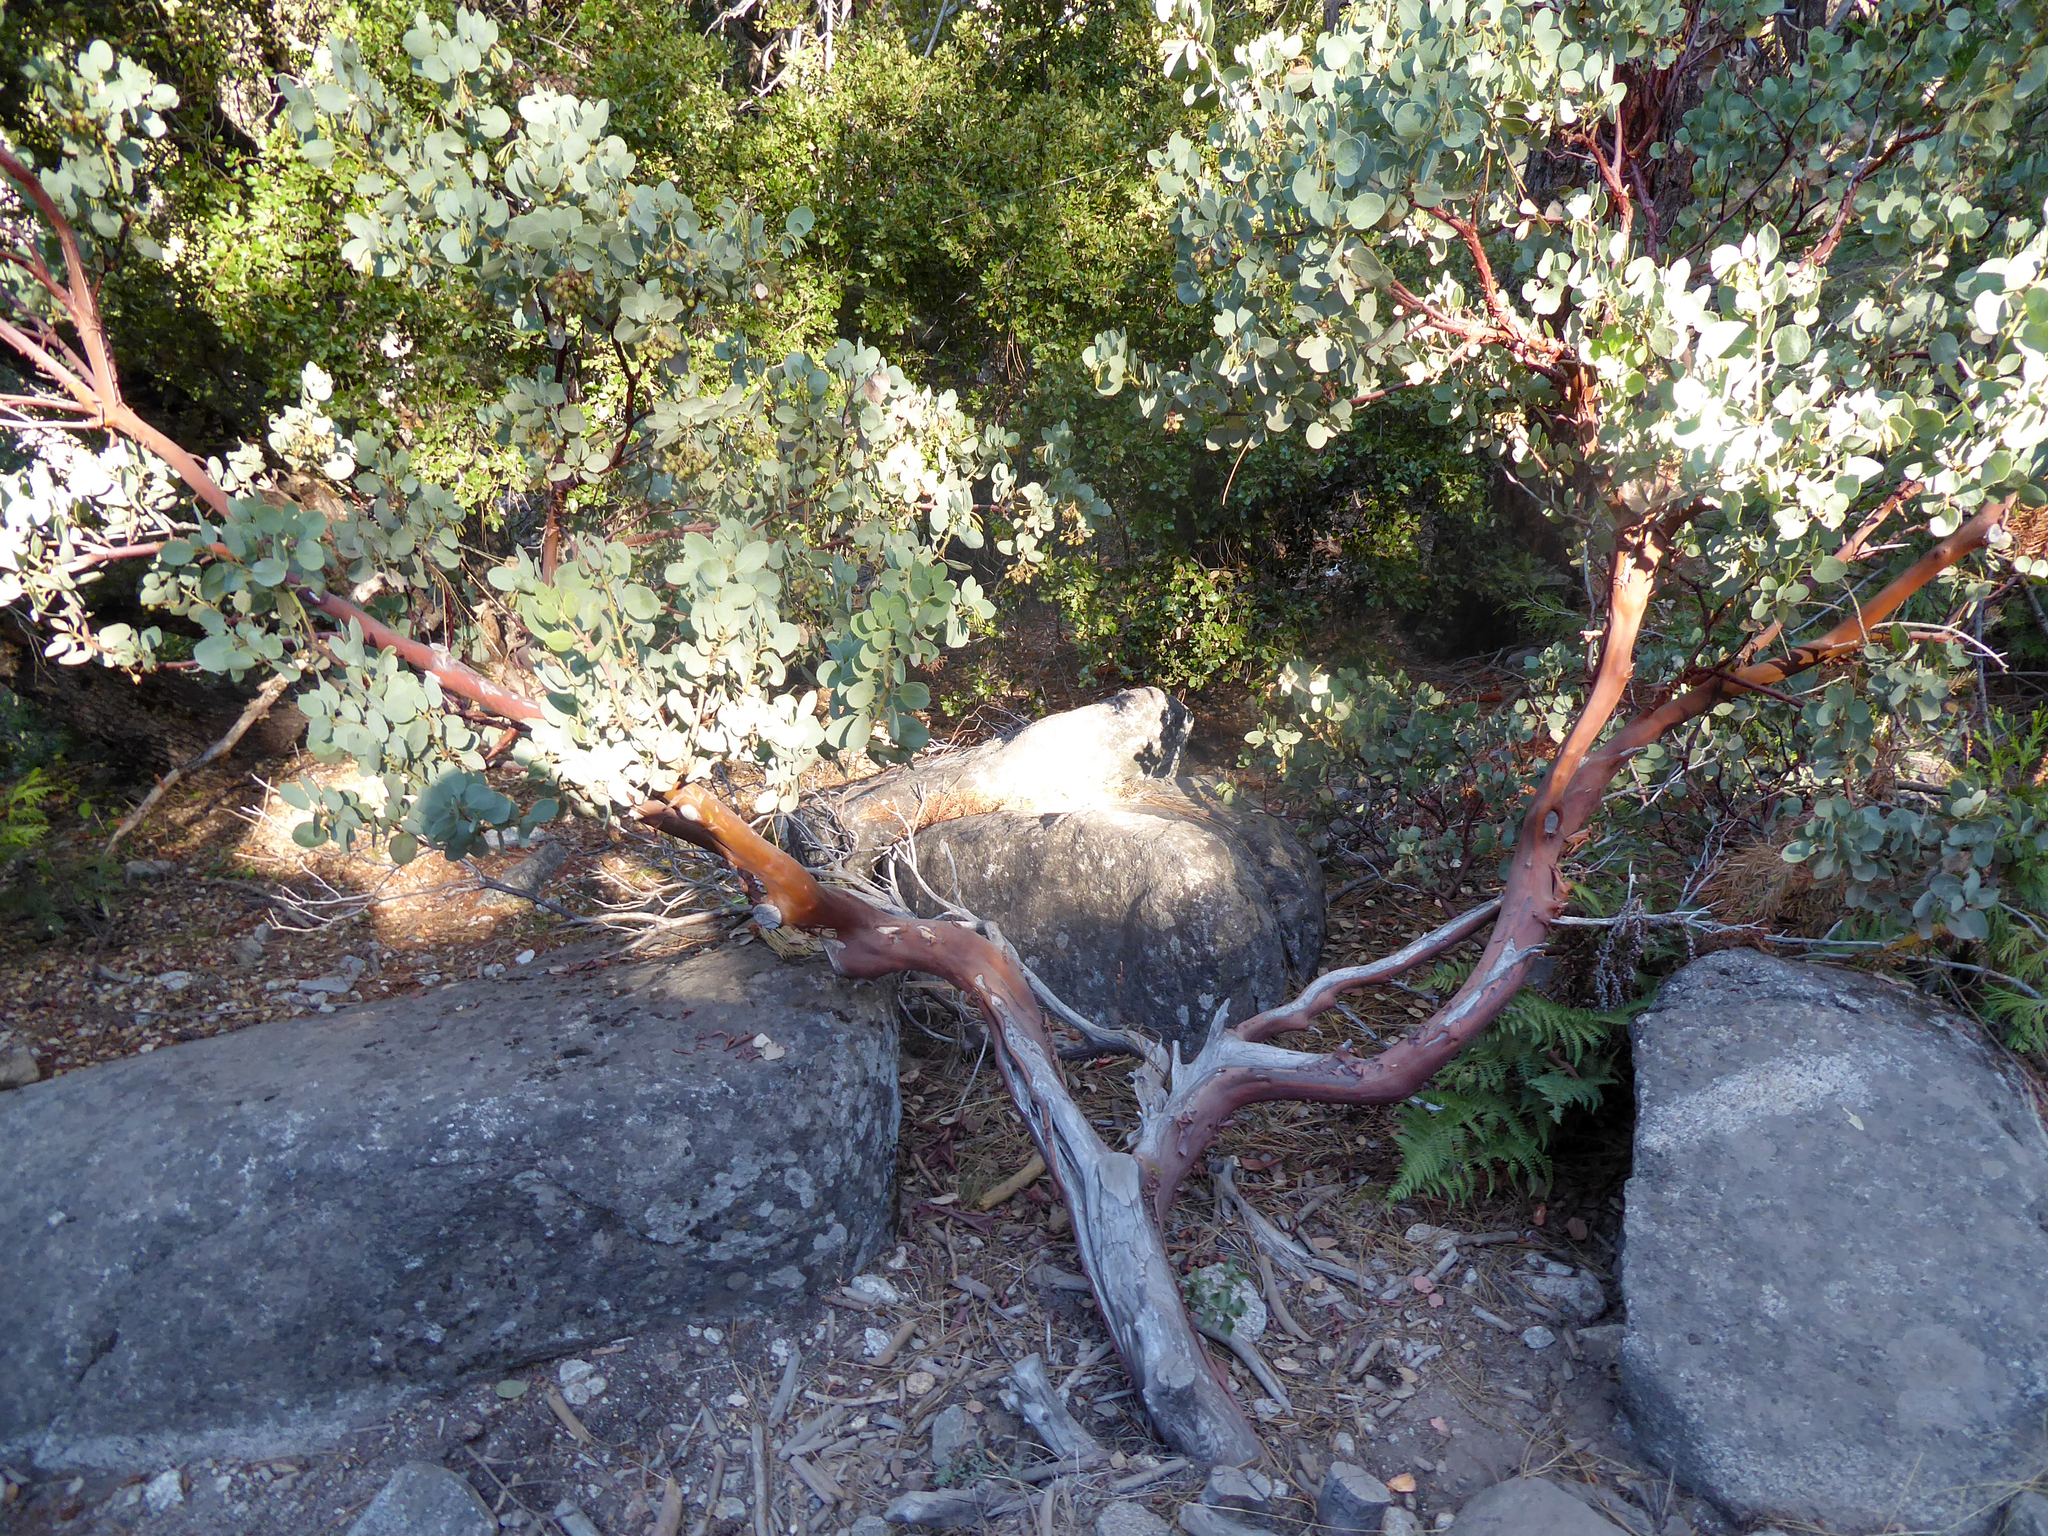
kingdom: Plantae
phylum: Tracheophyta
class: Magnoliopsida
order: Ericales
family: Ericaceae
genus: Arctostaphylos
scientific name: Arctostaphylos viscida
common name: White-leaf manzanita
